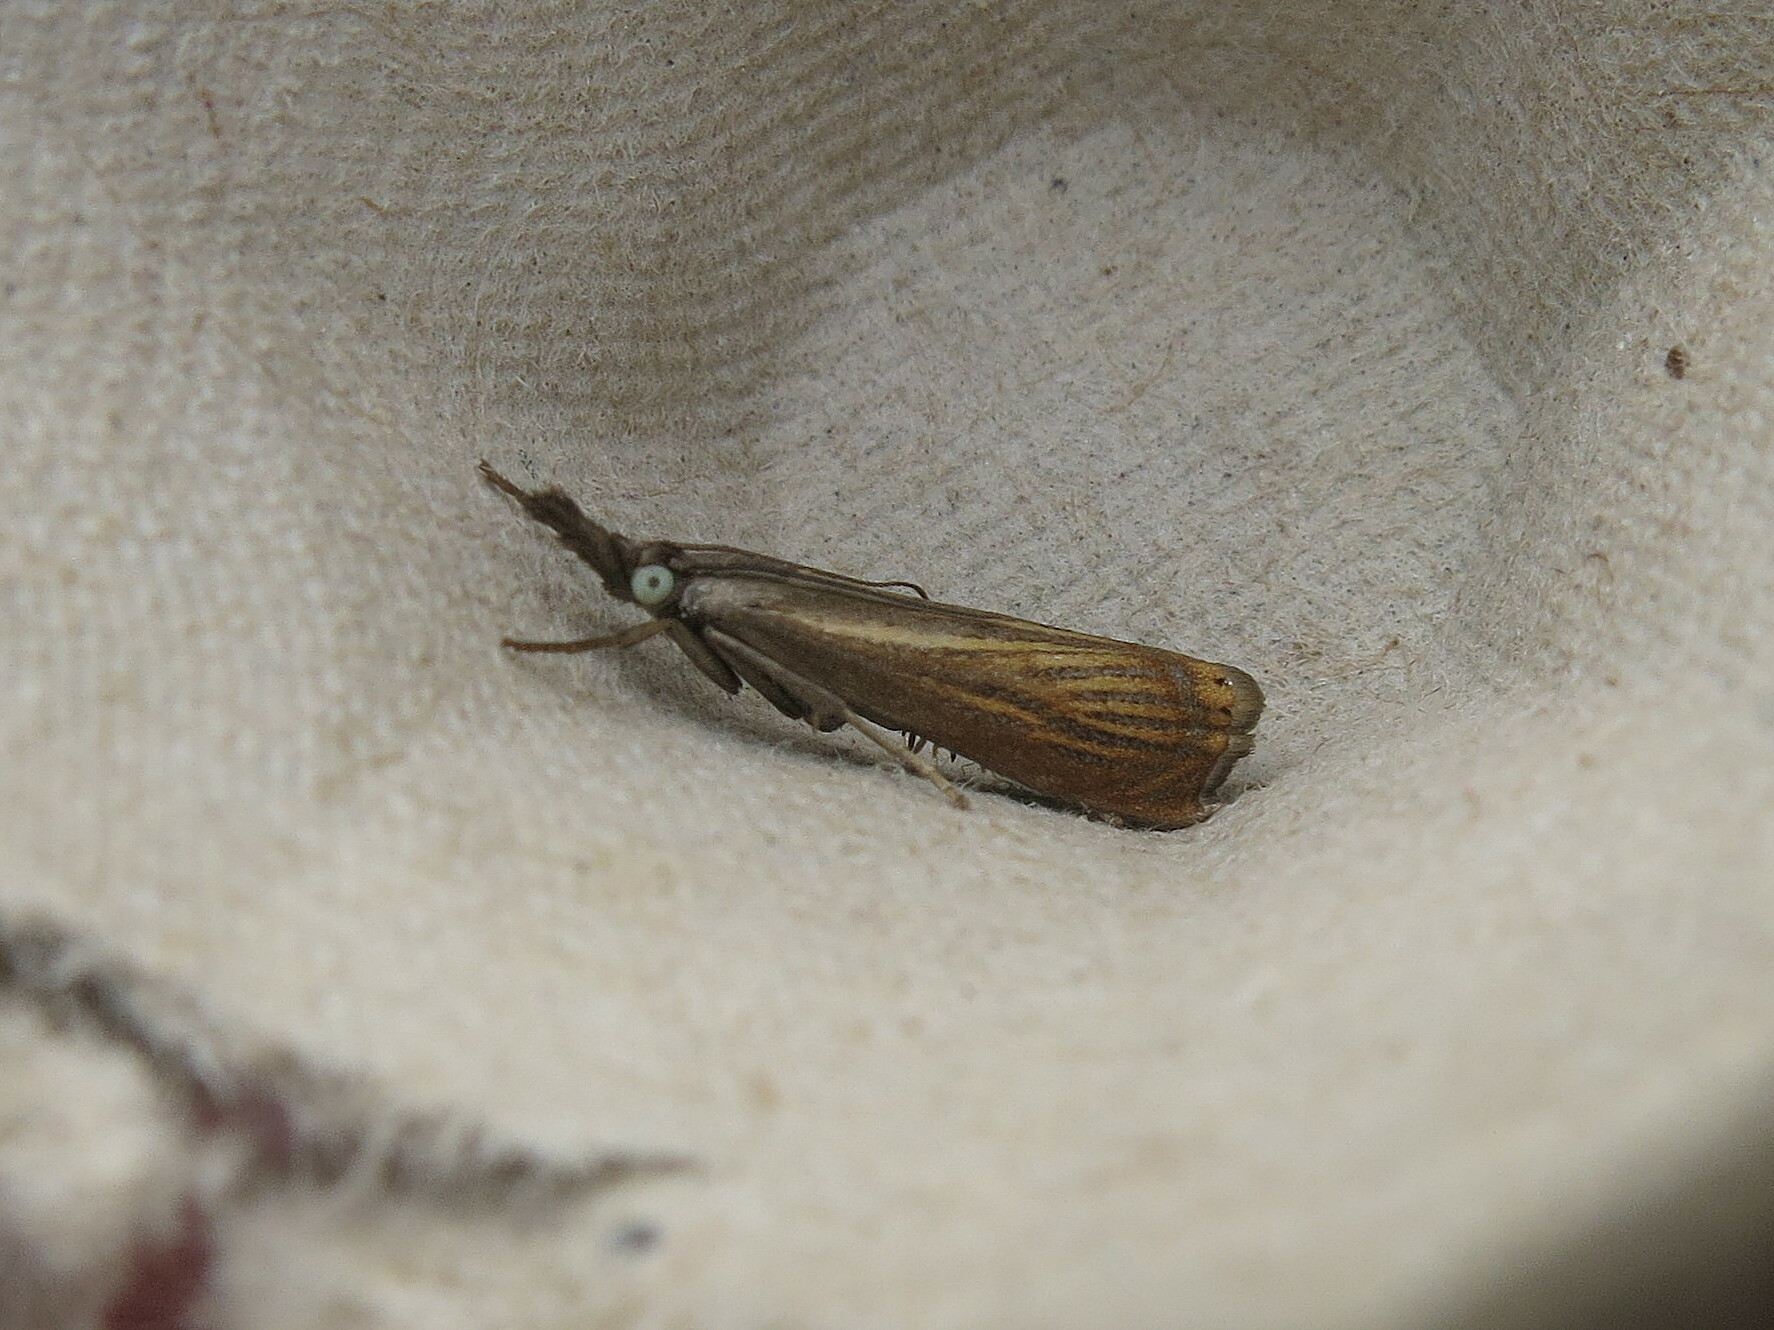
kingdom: Animalia
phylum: Arthropoda
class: Insecta
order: Lepidoptera
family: Crambidae
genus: Chrysoteuchia
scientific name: Chrysoteuchia culmella
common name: Garden grass-veneer
